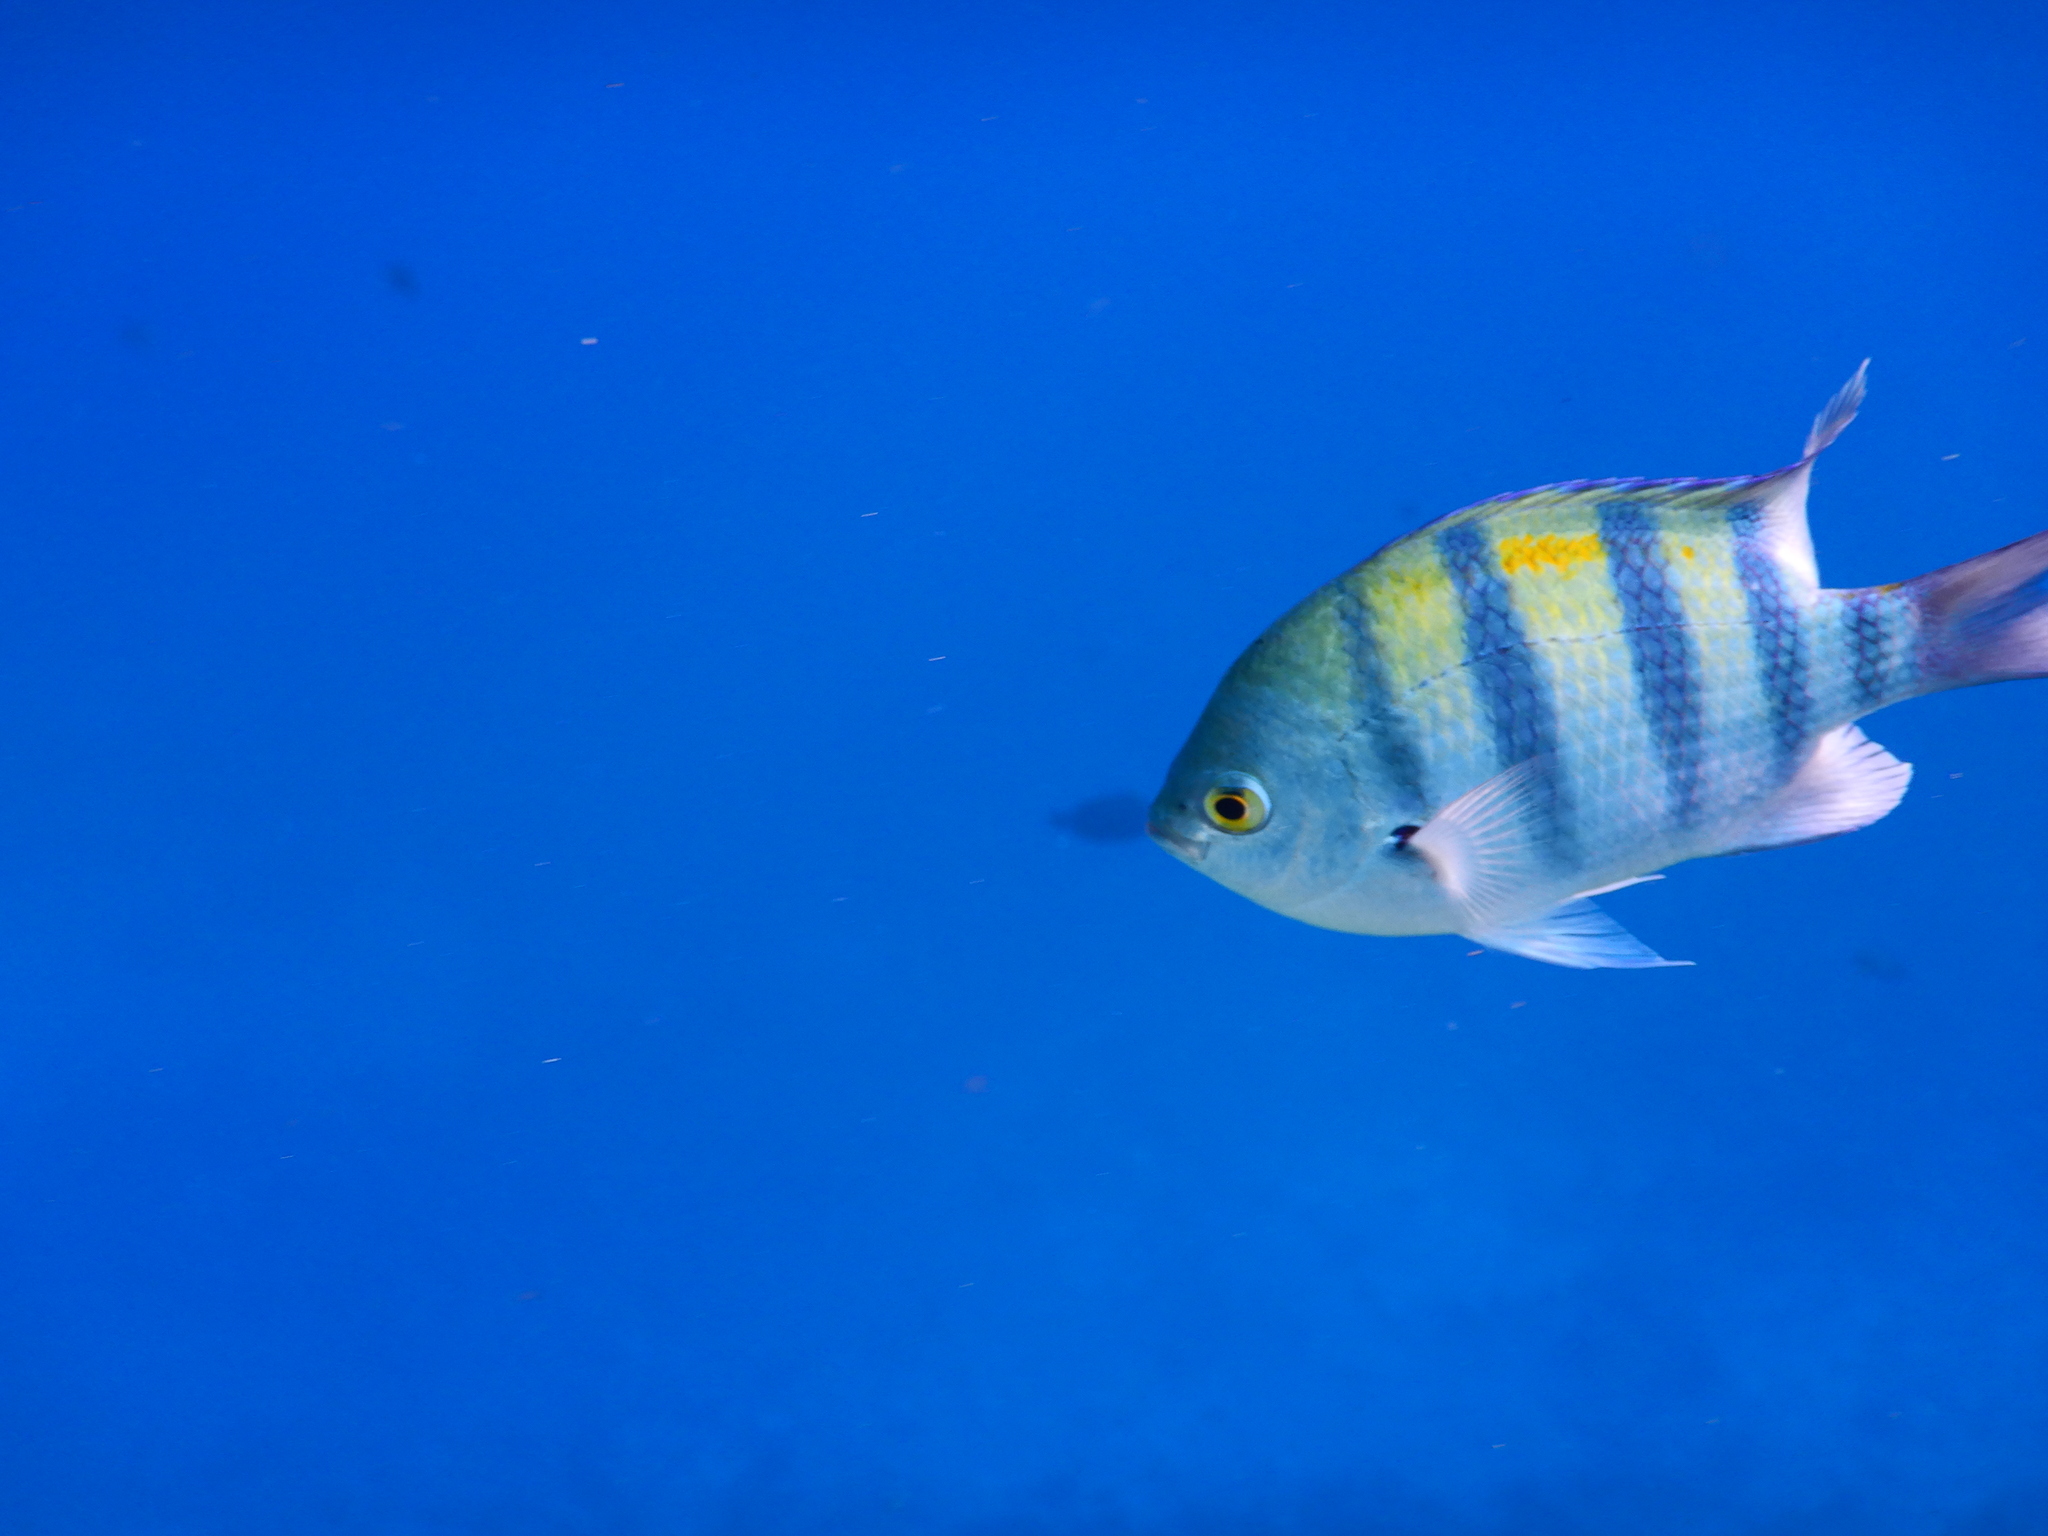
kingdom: Animalia
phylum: Chordata
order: Perciformes
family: Pomacentridae
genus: Abudefduf
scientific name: Abudefduf vaigiensis
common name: Indo-pacific sergeant
